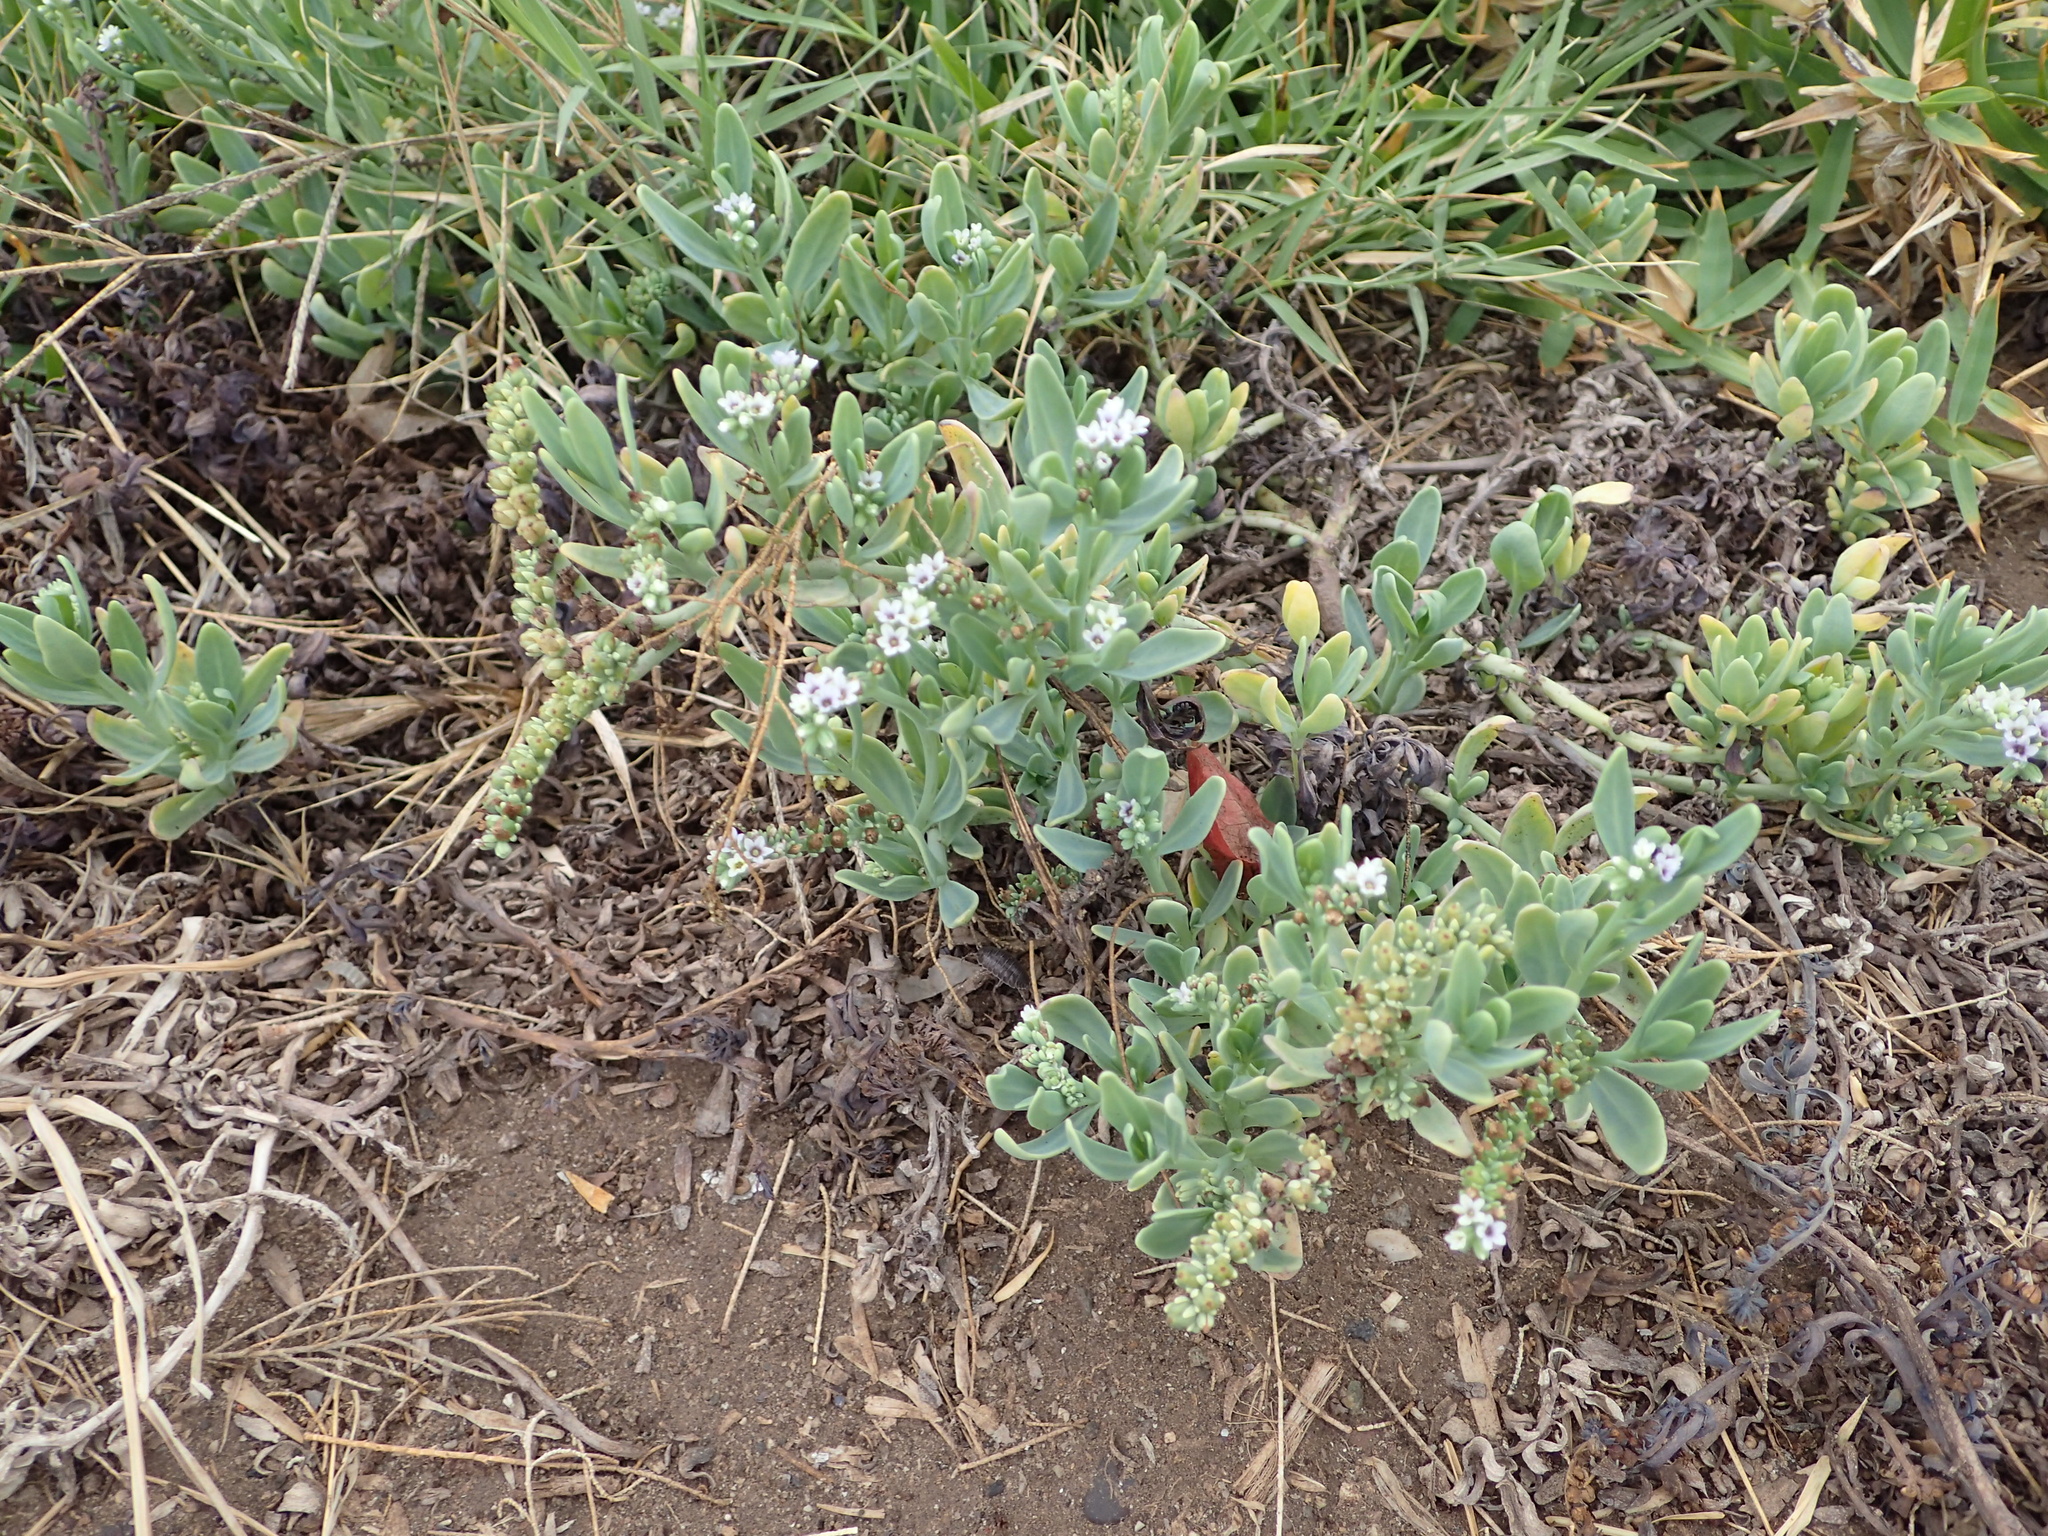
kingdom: Plantae
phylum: Tracheophyta
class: Magnoliopsida
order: Boraginales
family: Heliotropiaceae
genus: Heliotropium
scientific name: Heliotropium curassavicum
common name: Seaside heliotrope
